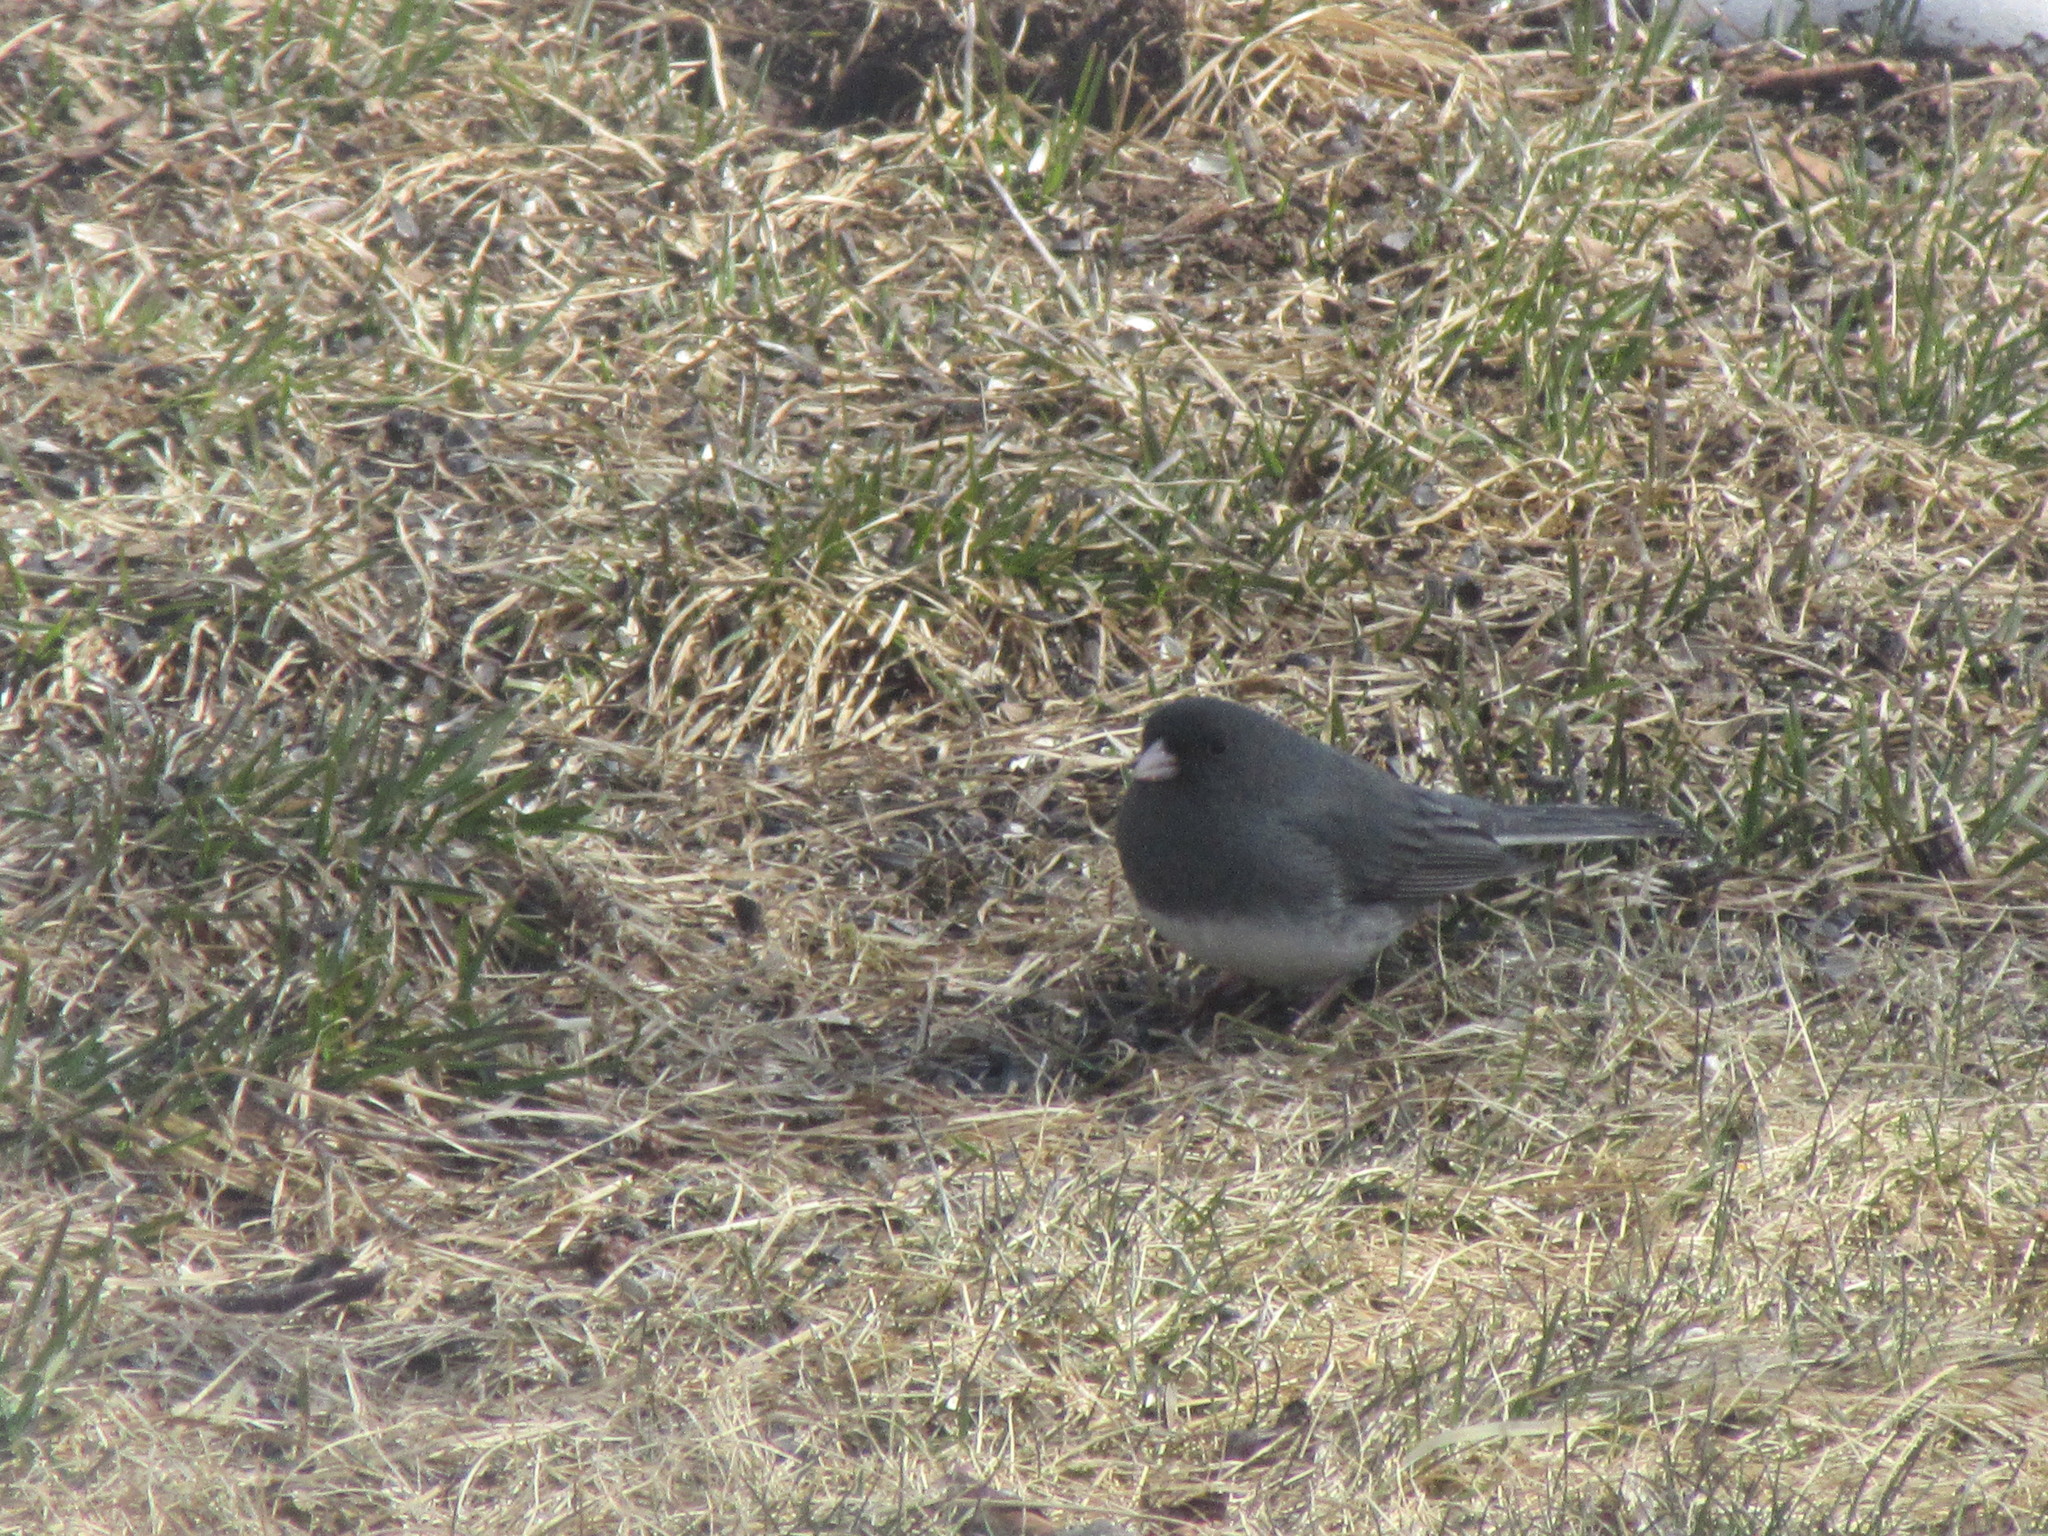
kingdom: Animalia
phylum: Chordata
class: Aves
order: Passeriformes
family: Passerellidae
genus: Junco
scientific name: Junco hyemalis
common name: Dark-eyed junco
